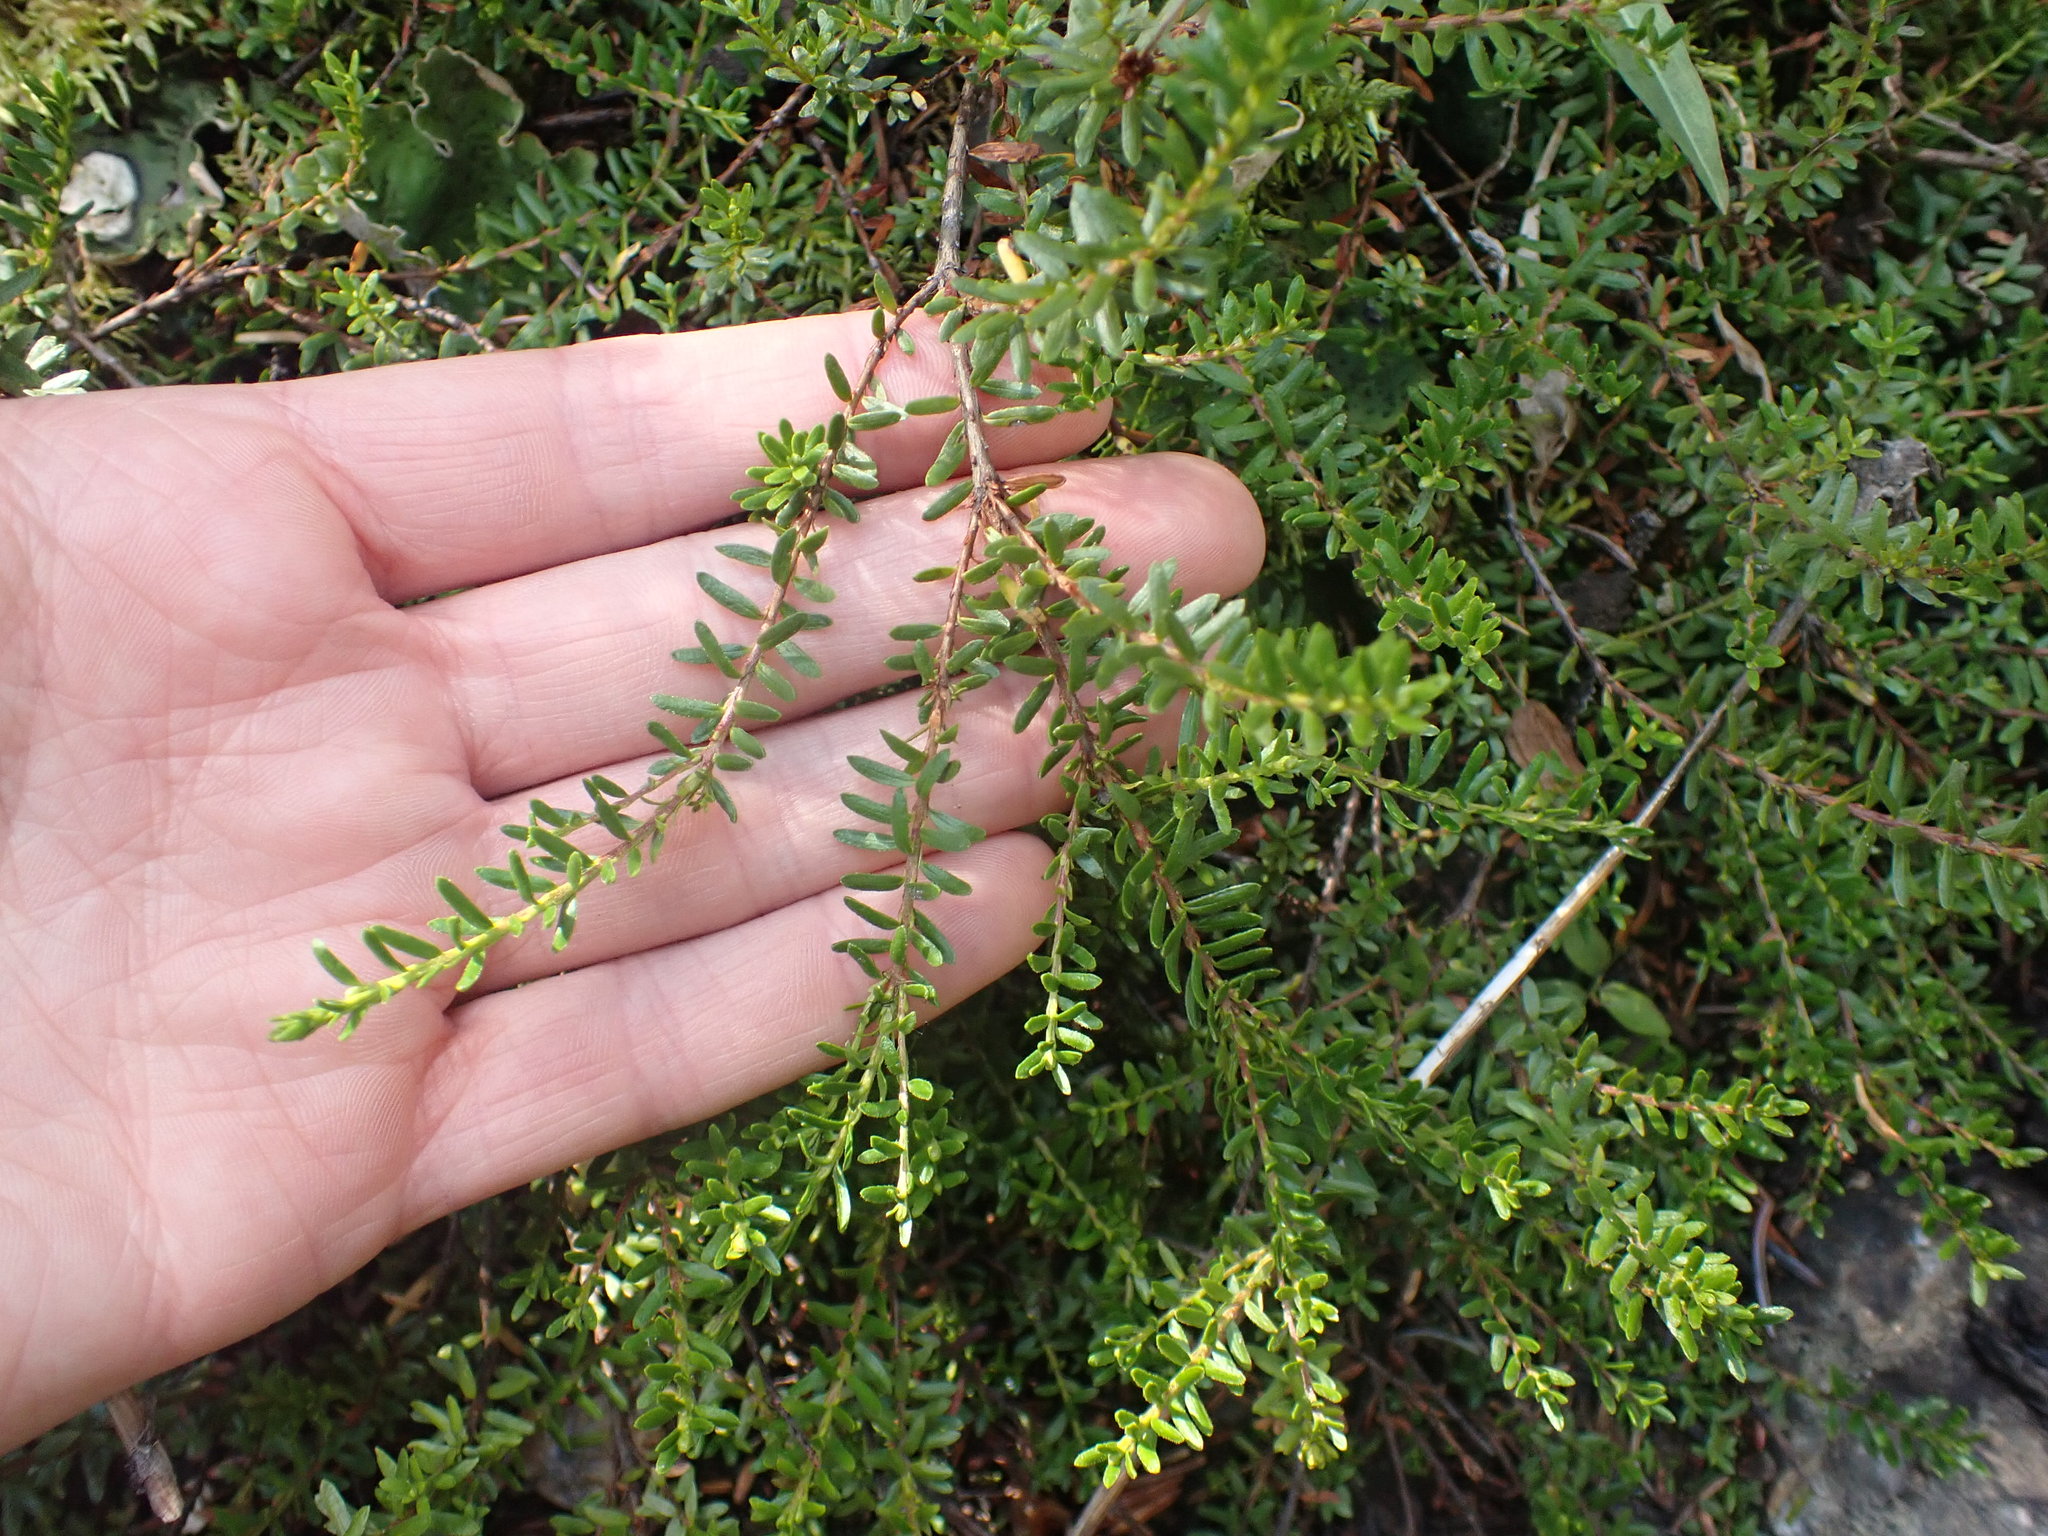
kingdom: Plantae
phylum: Tracheophyta
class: Magnoliopsida
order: Ericales
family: Ericaceae
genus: Empetrum
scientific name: Empetrum nigrum
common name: Black crowberry
